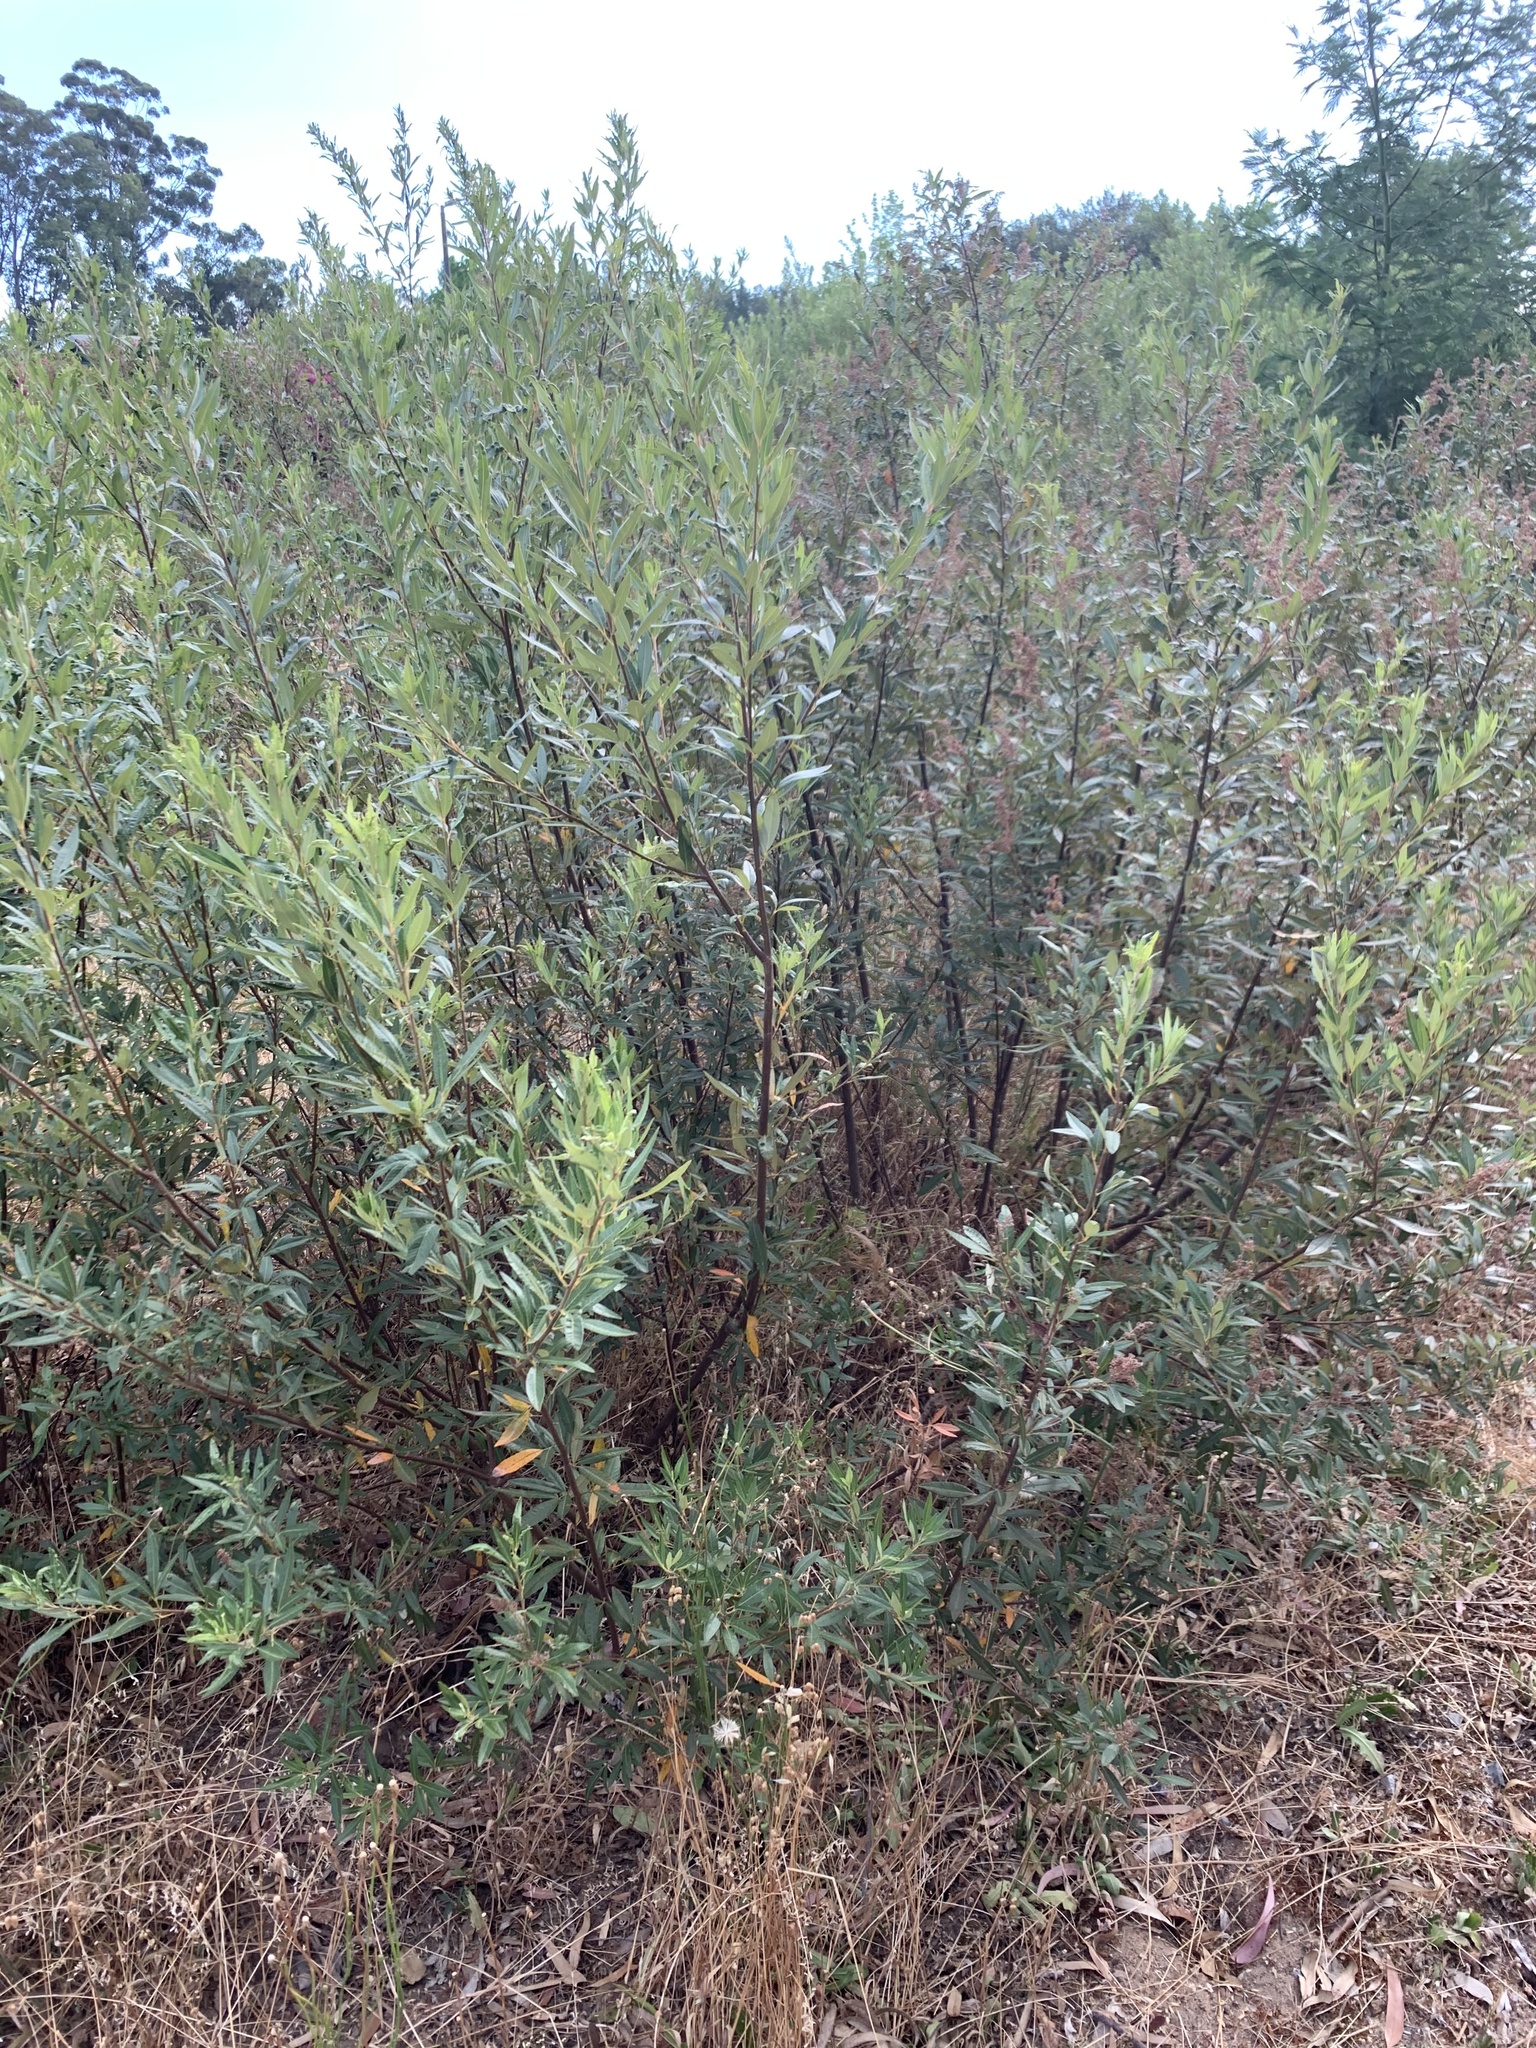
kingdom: Plantae
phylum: Tracheophyta
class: Magnoliopsida
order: Sapindales
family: Anacardiaceae
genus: Searsia
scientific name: Searsia angustifolia
